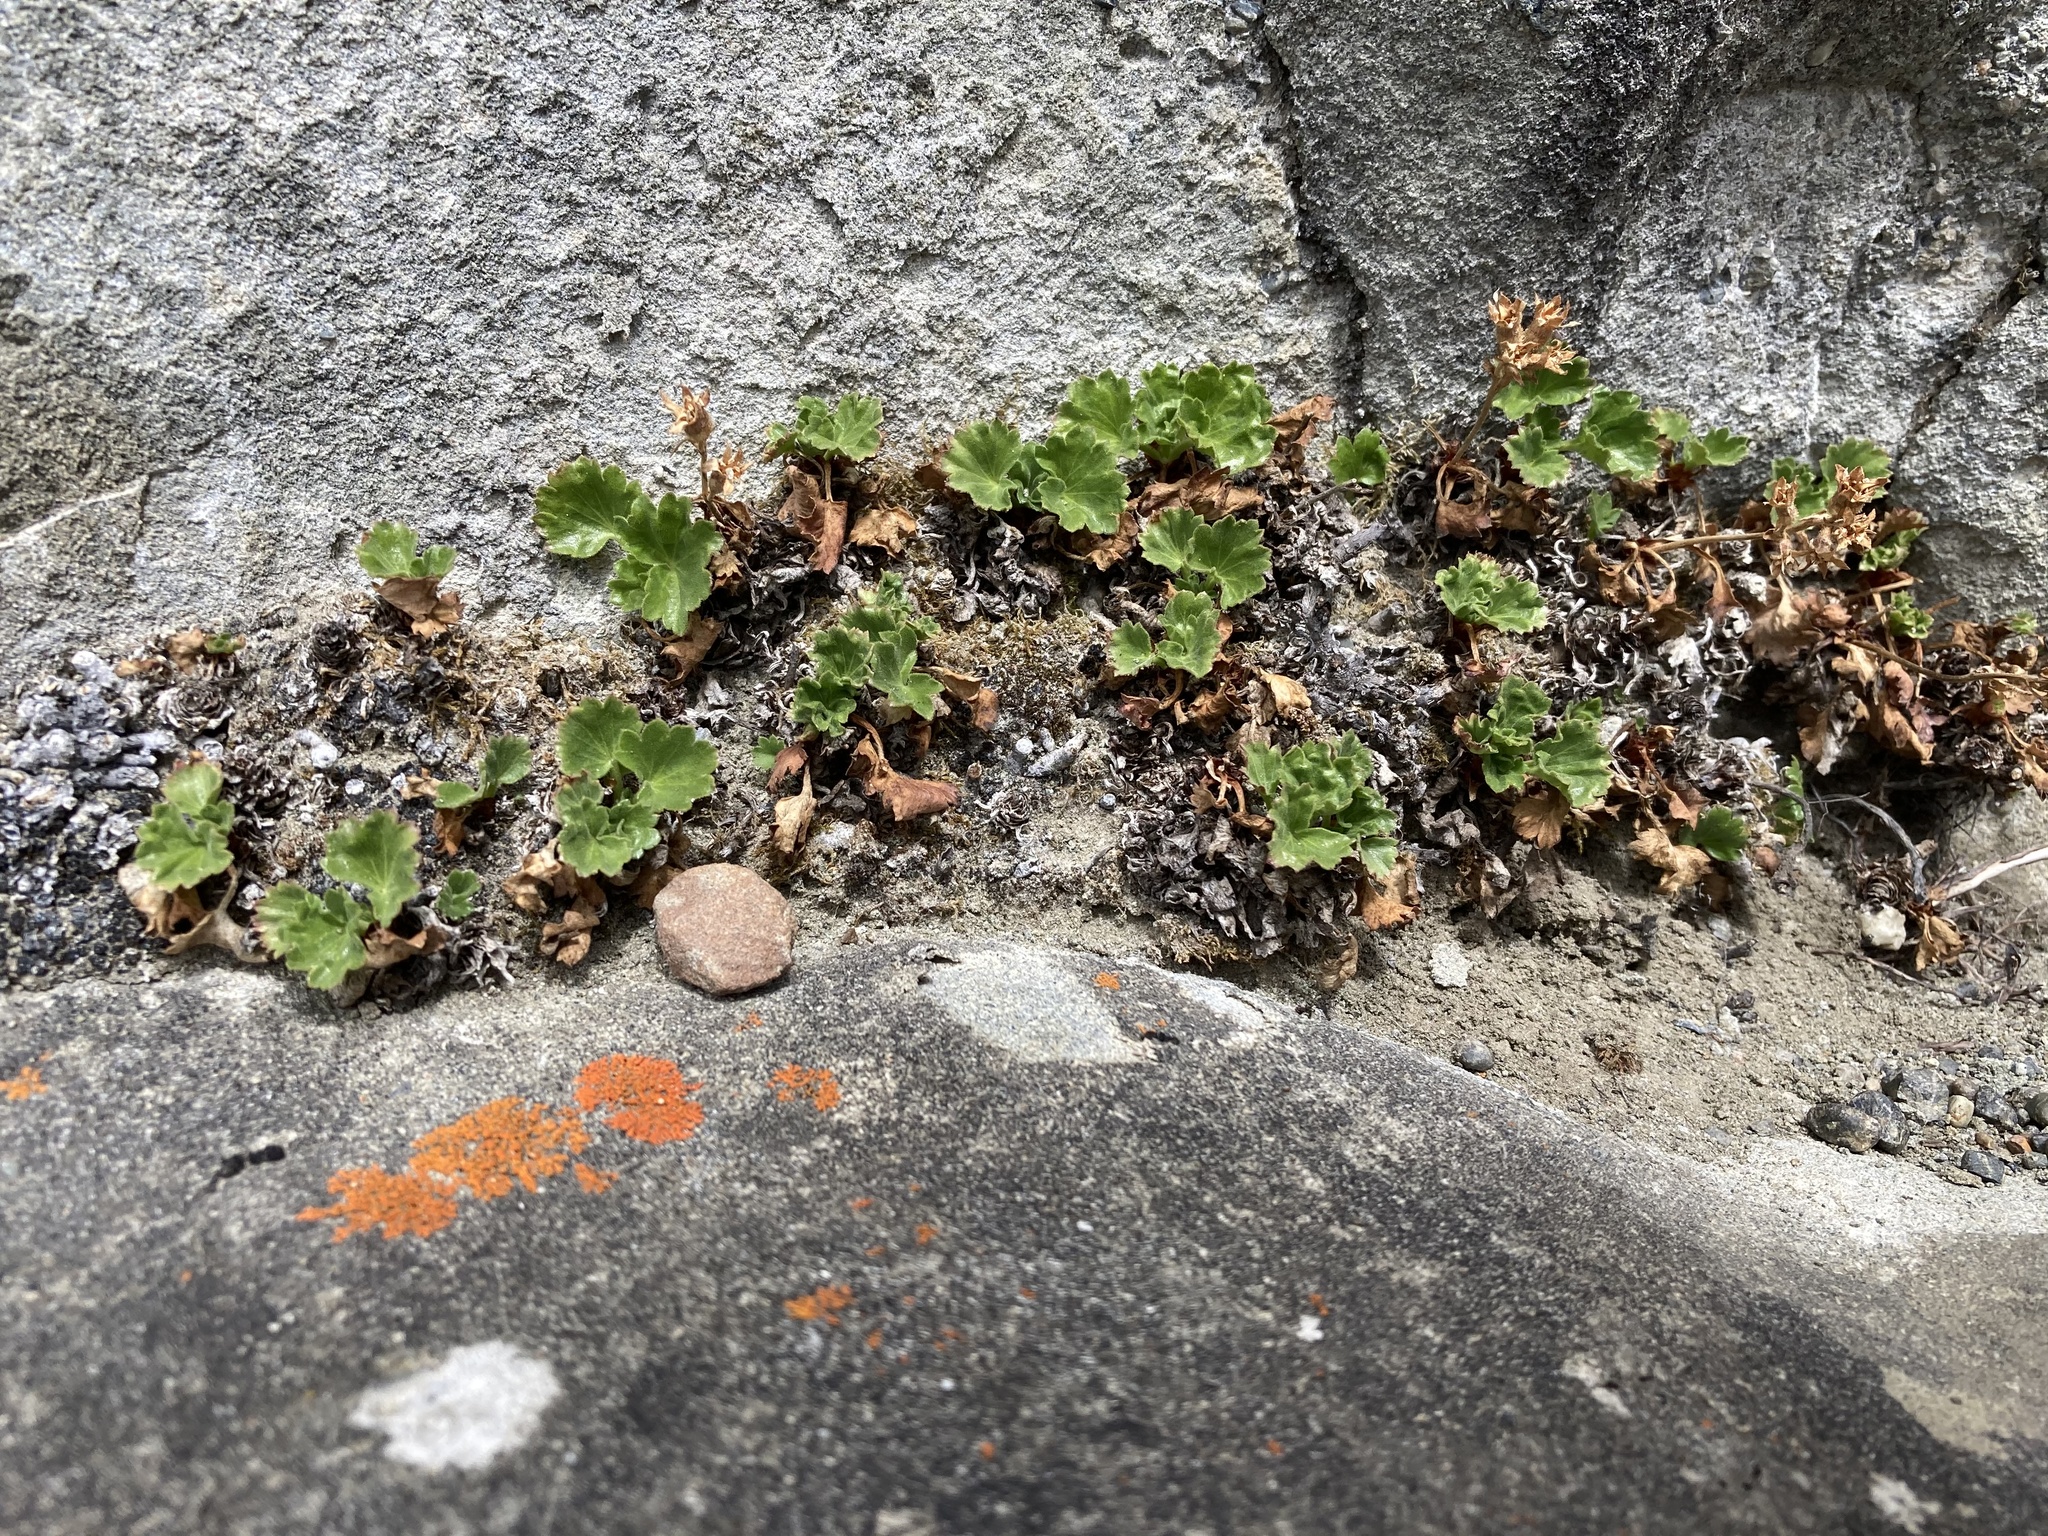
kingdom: Plantae
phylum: Tracheophyta
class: Magnoliopsida
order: Saxifragales
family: Saxifragaceae
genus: Telesonix
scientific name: Telesonix heucheriformis
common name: Alumroot brookfoam
